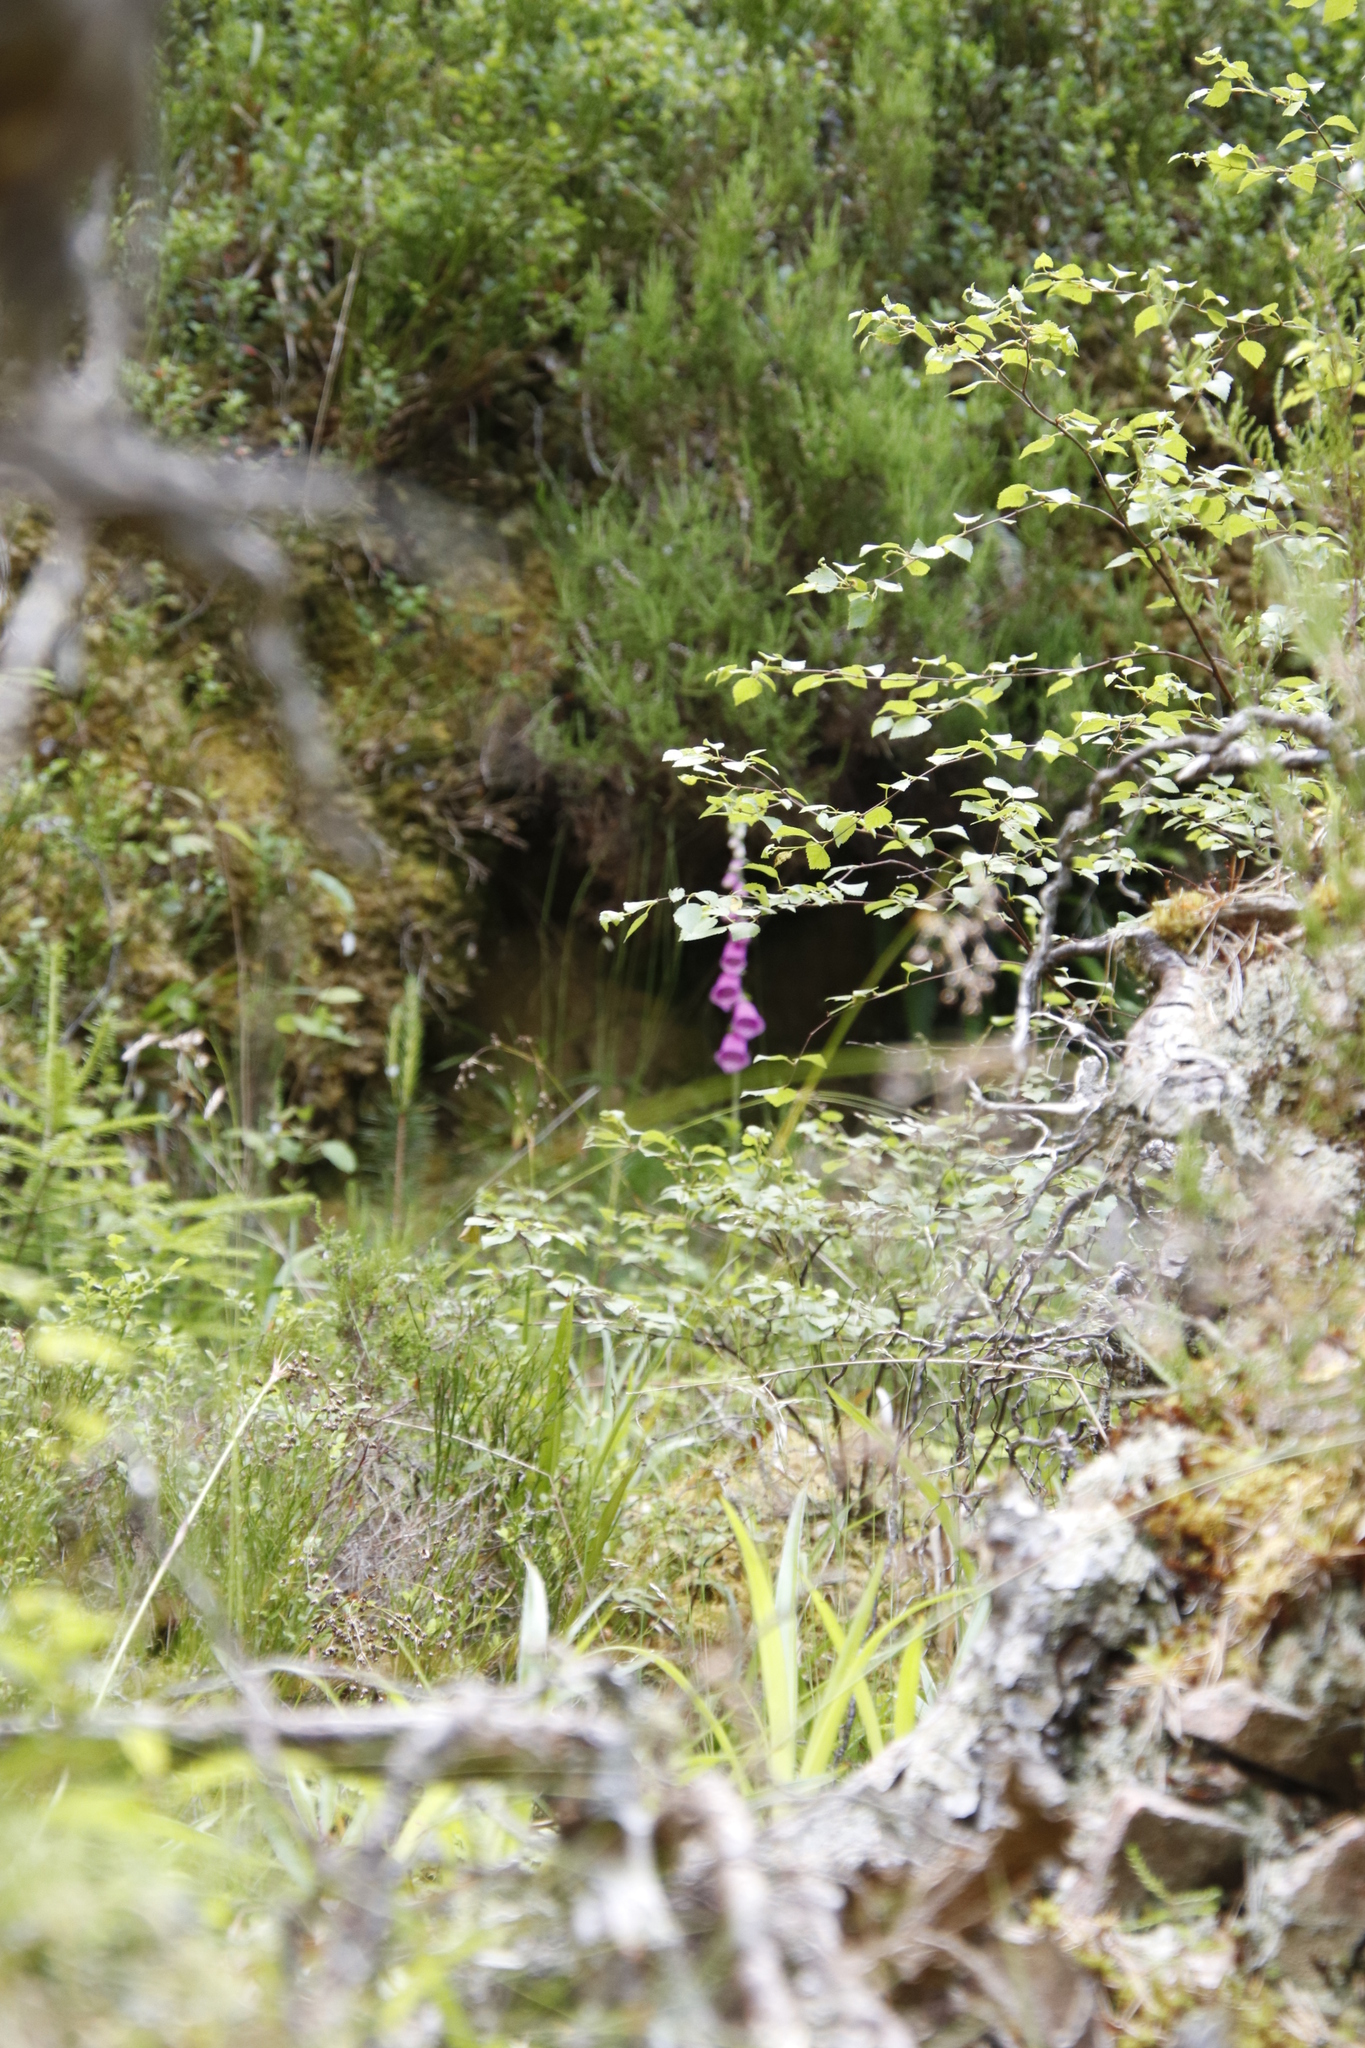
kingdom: Plantae
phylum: Tracheophyta
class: Magnoliopsida
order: Lamiales
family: Plantaginaceae
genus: Digitalis
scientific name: Digitalis purpurea
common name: Foxglove
